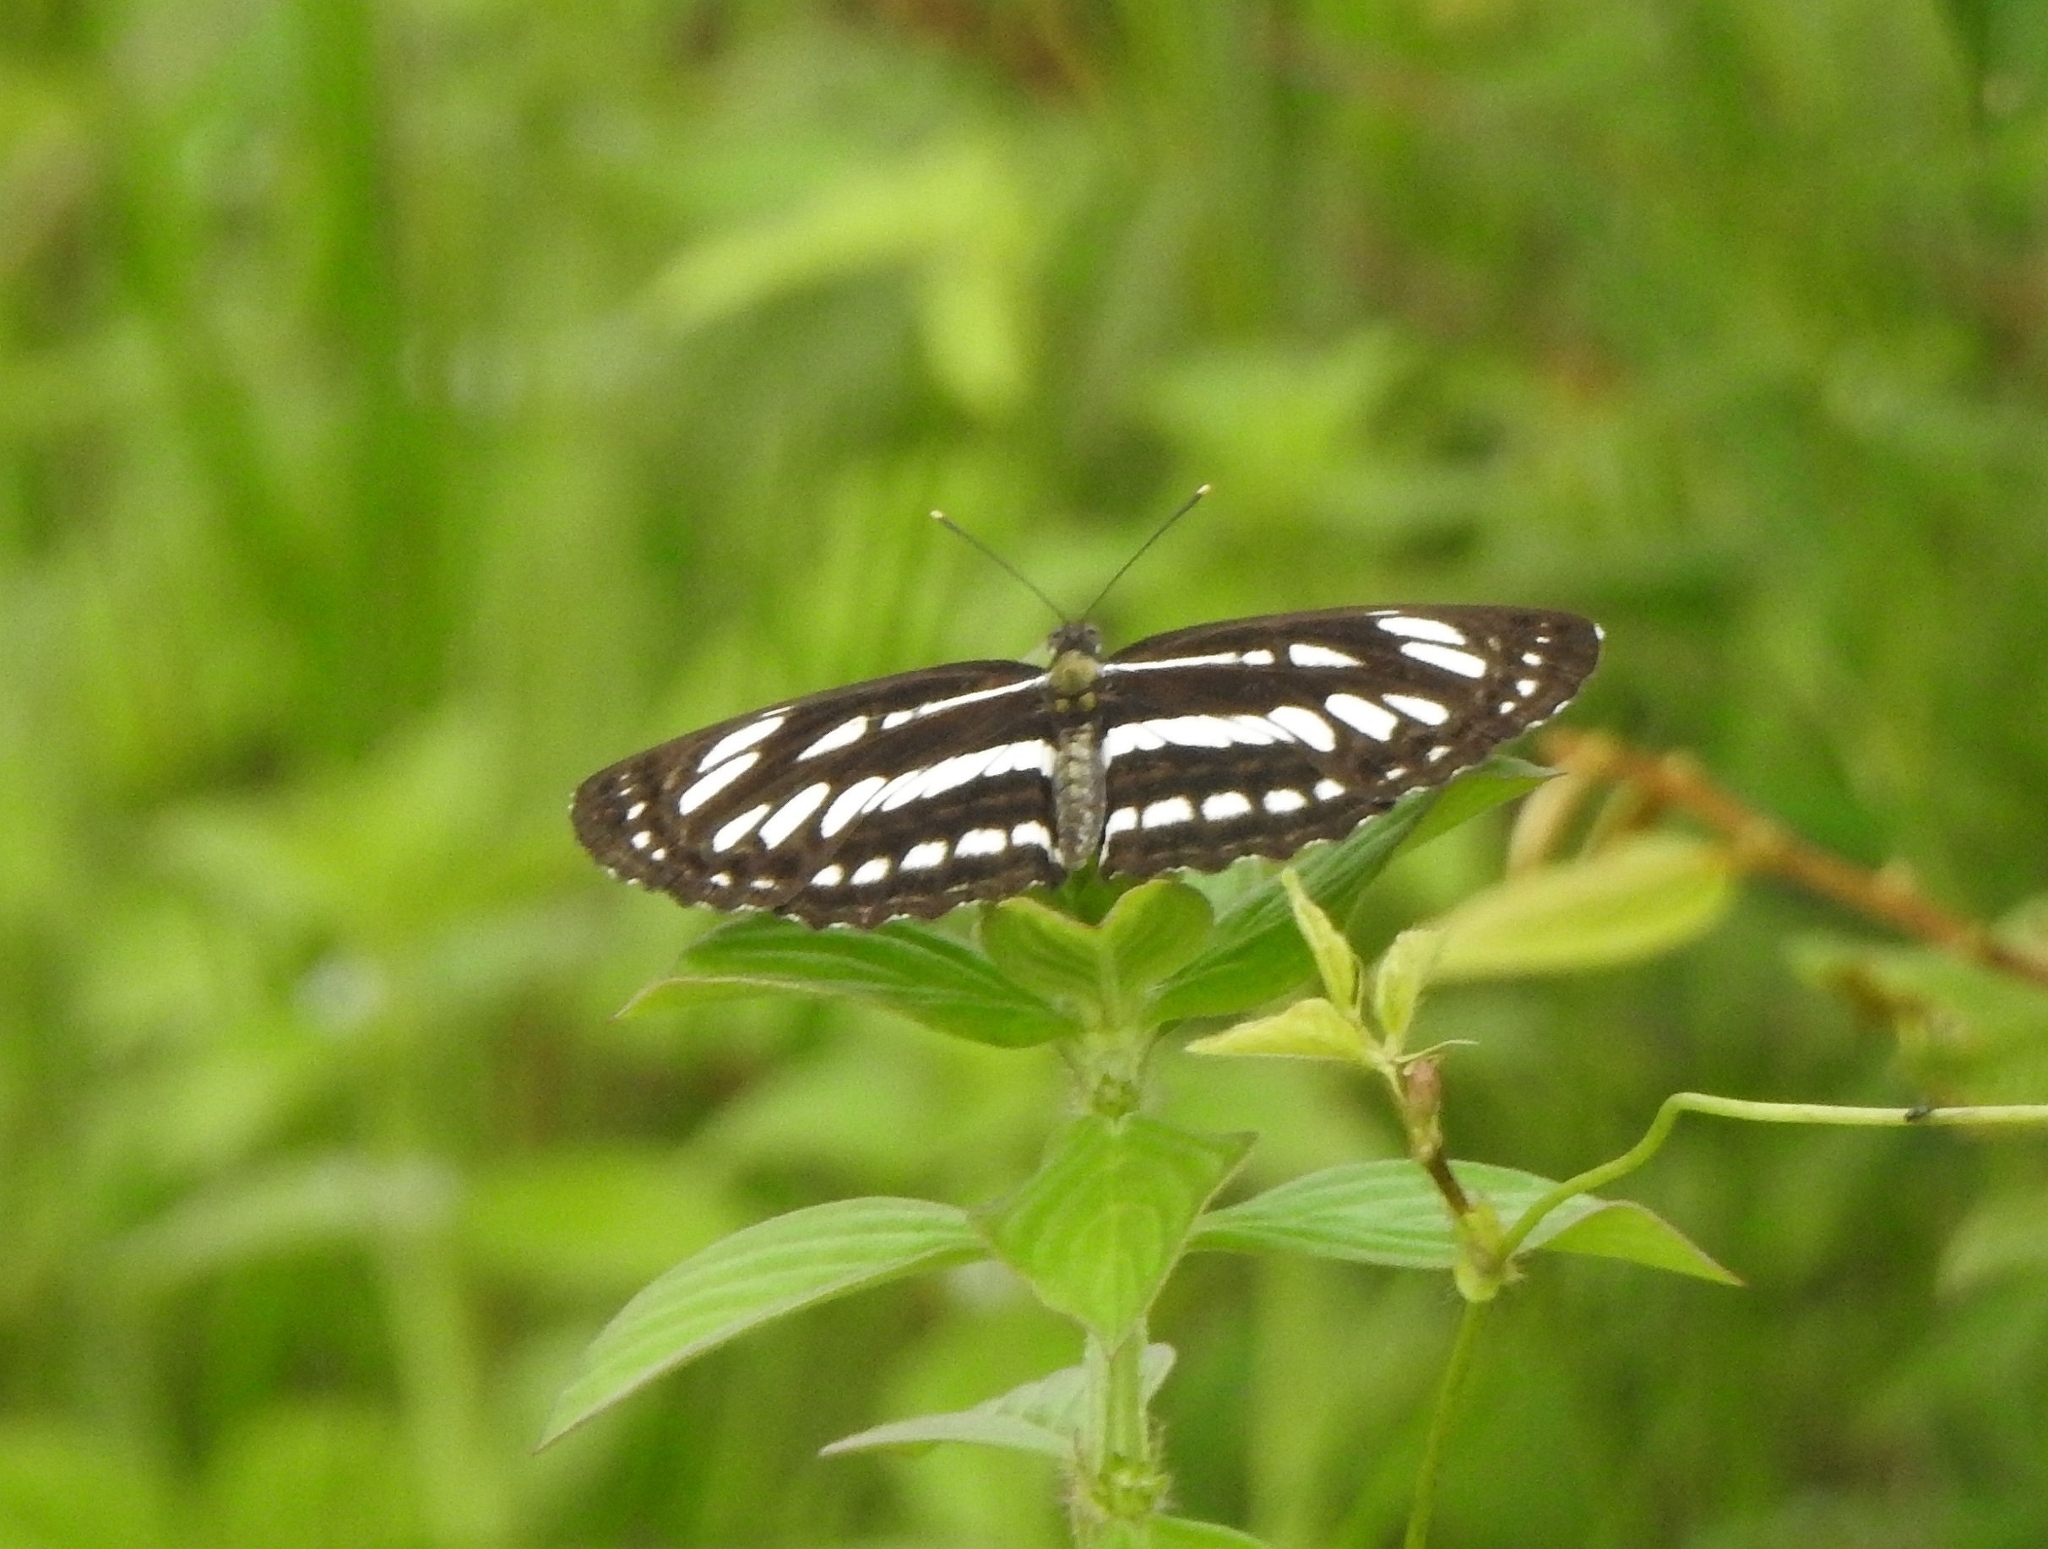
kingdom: Animalia
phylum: Arthropoda
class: Insecta
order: Lepidoptera
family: Nymphalidae
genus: Neptis
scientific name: Neptis hylas
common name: Common sailer
